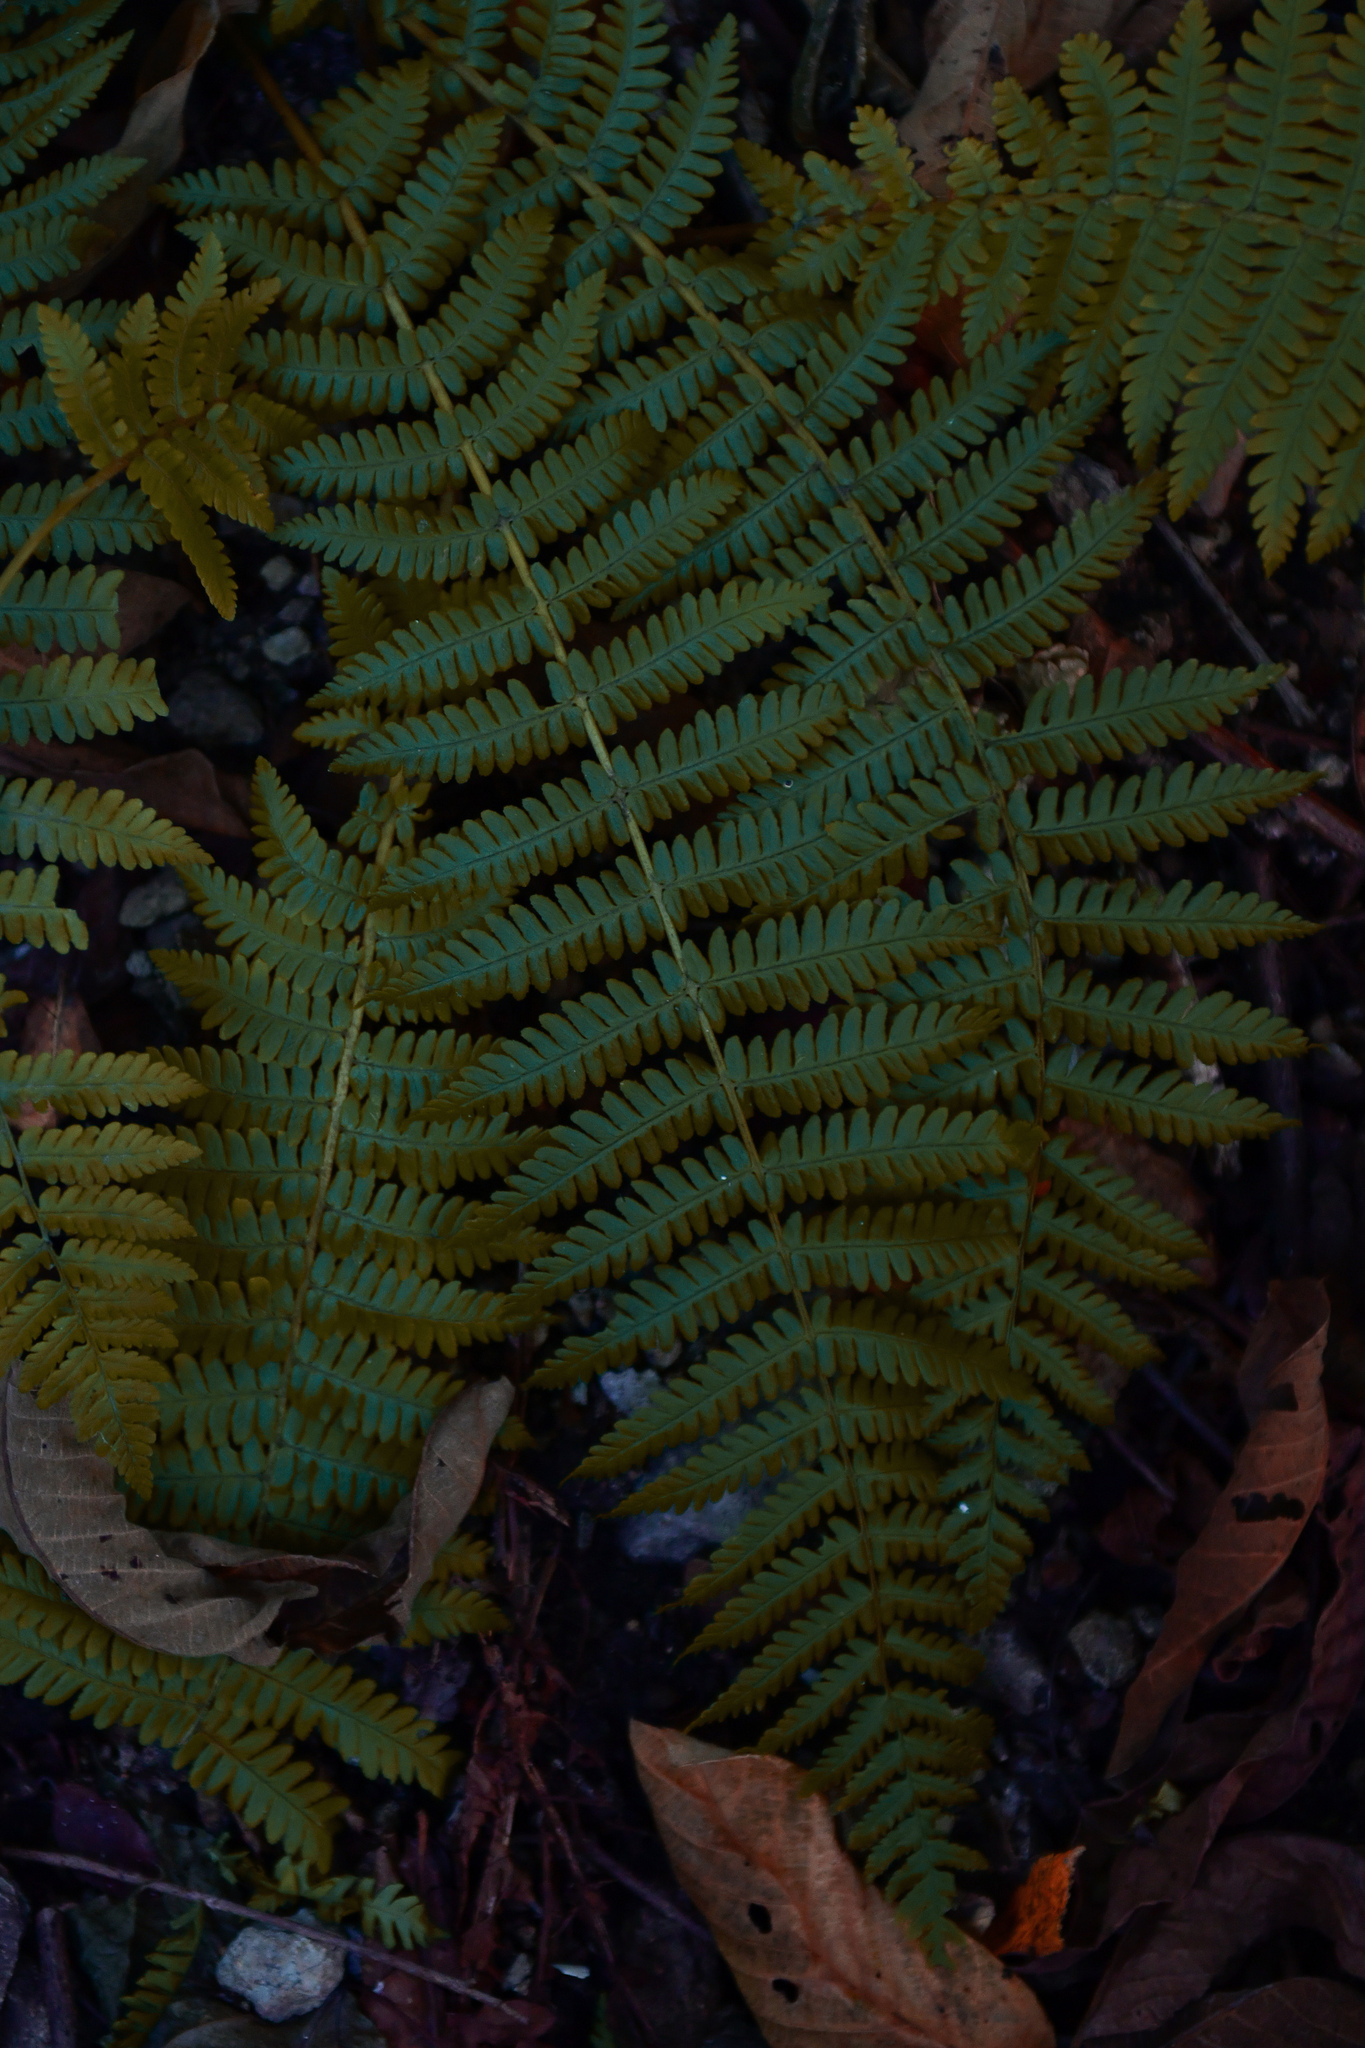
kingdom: Plantae
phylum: Tracheophyta
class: Polypodiopsida
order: Polypodiales
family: Dryopteridaceae
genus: Dryopteris
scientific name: Dryopteris crassirhizoma
